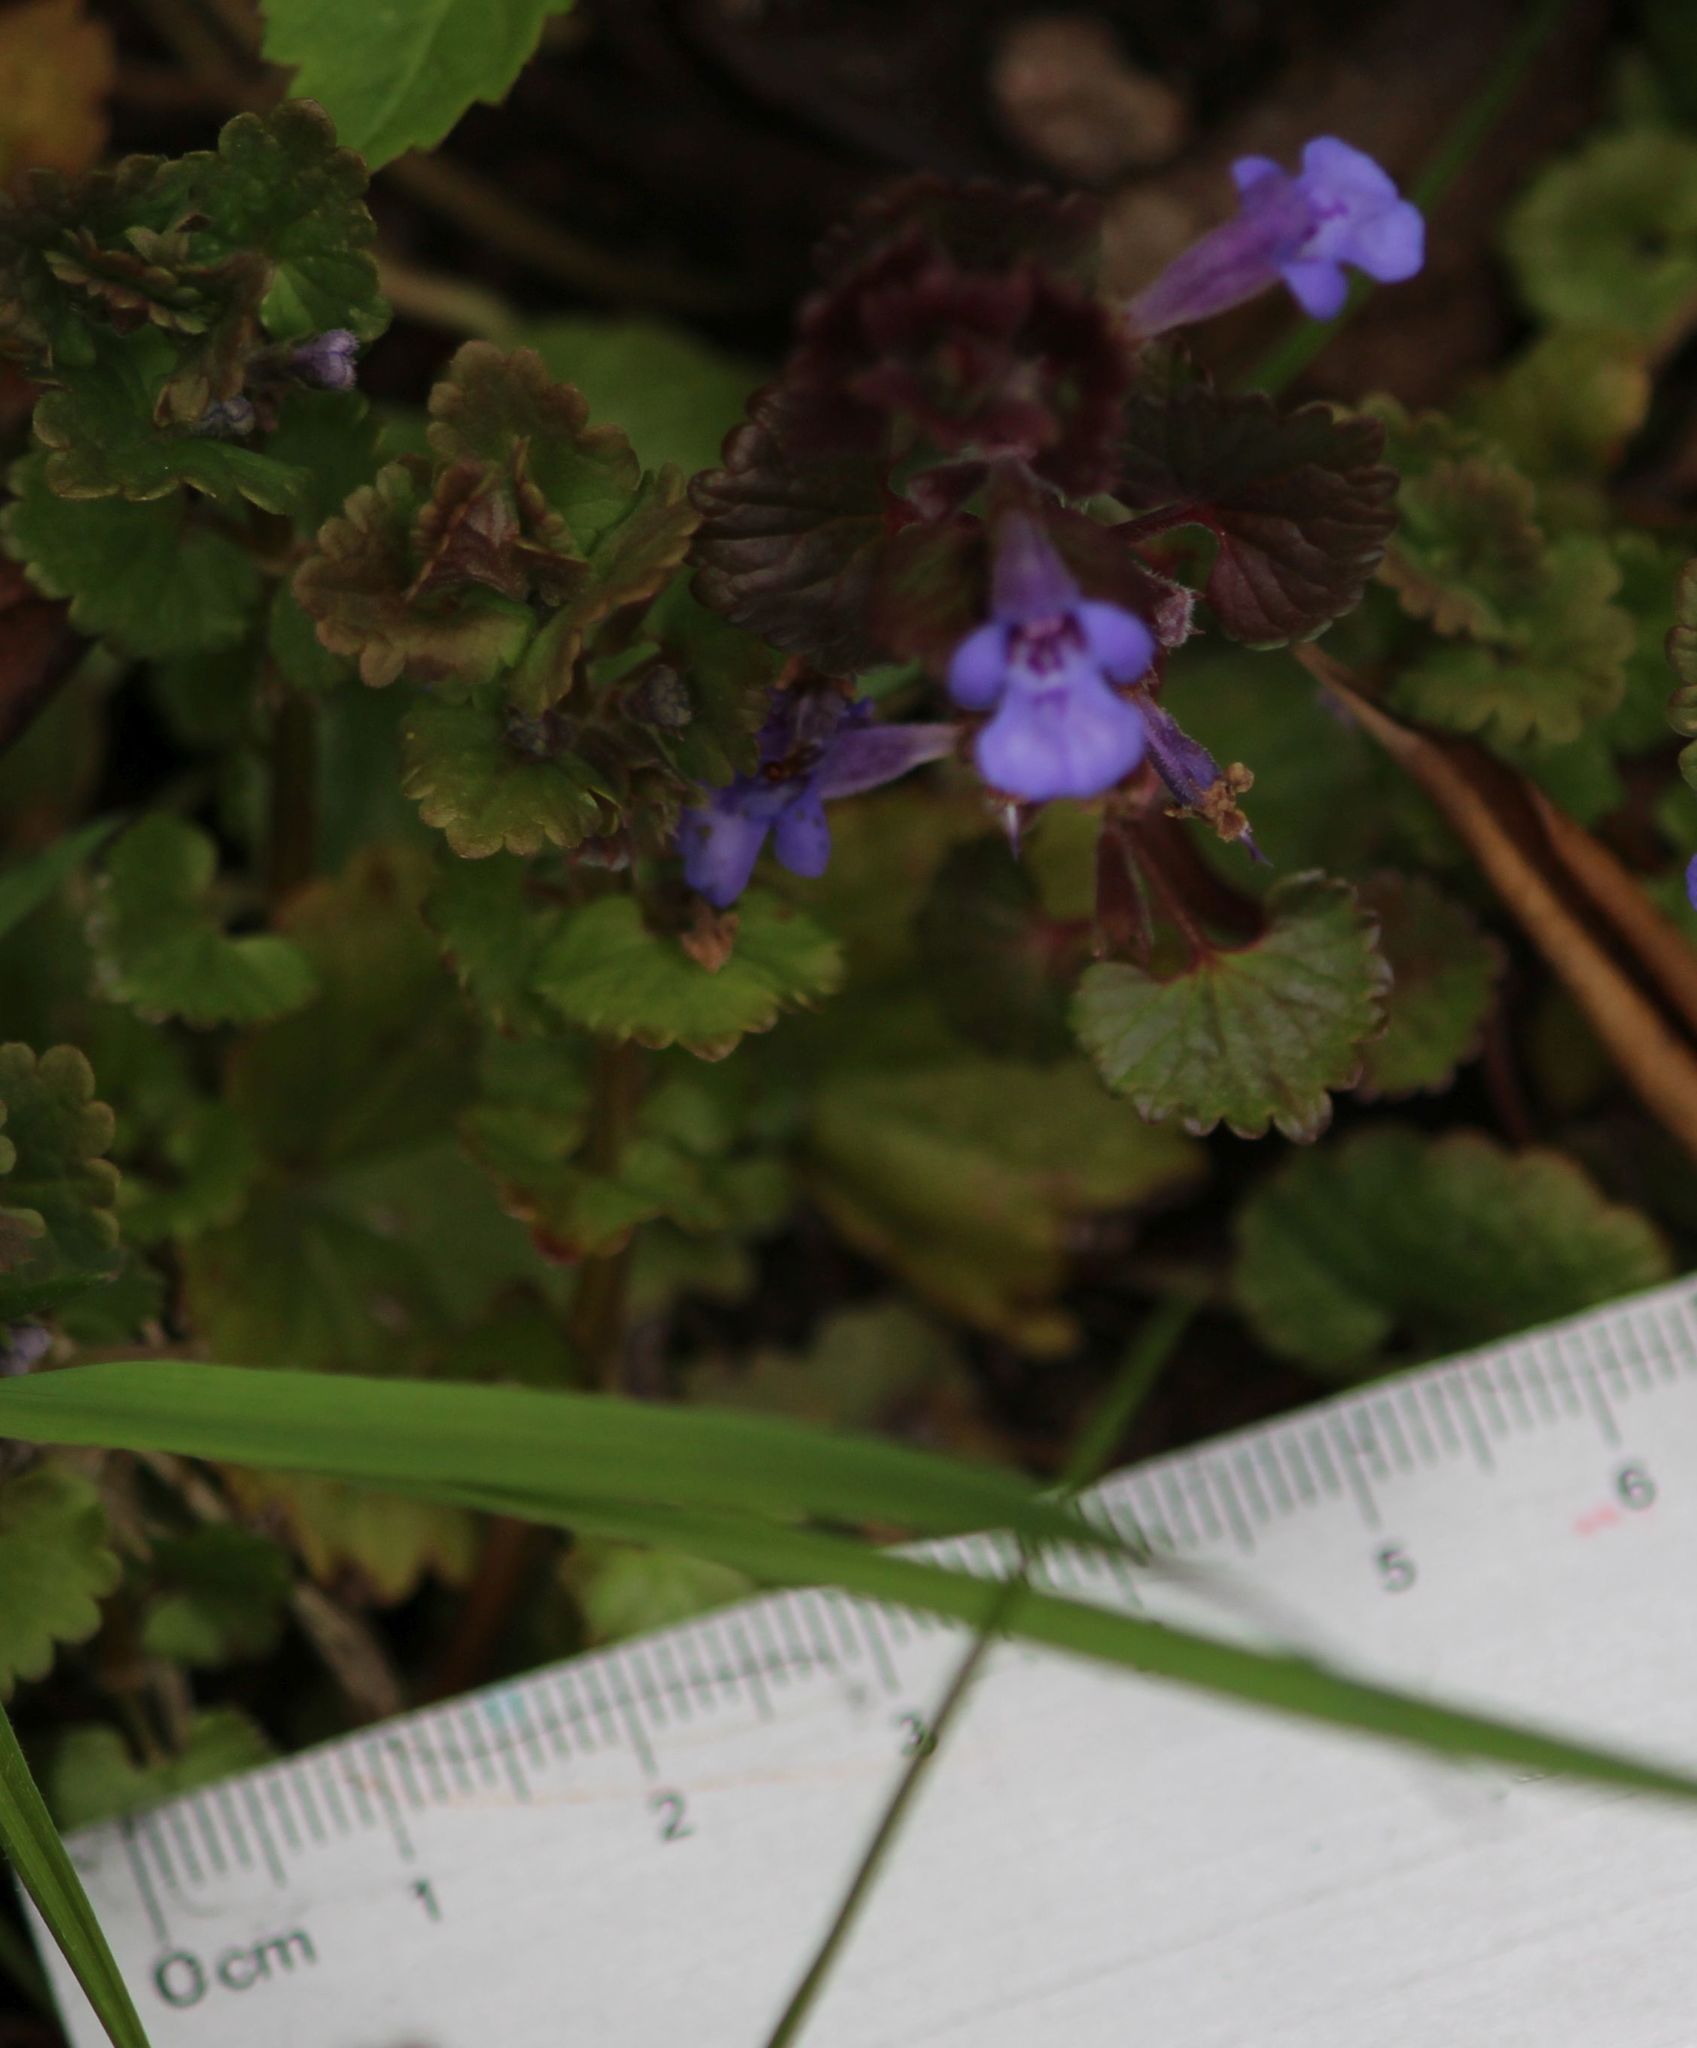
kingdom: Plantae
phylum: Tracheophyta
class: Magnoliopsida
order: Lamiales
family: Lamiaceae
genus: Glechoma
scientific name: Glechoma hederacea
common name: Ground ivy
